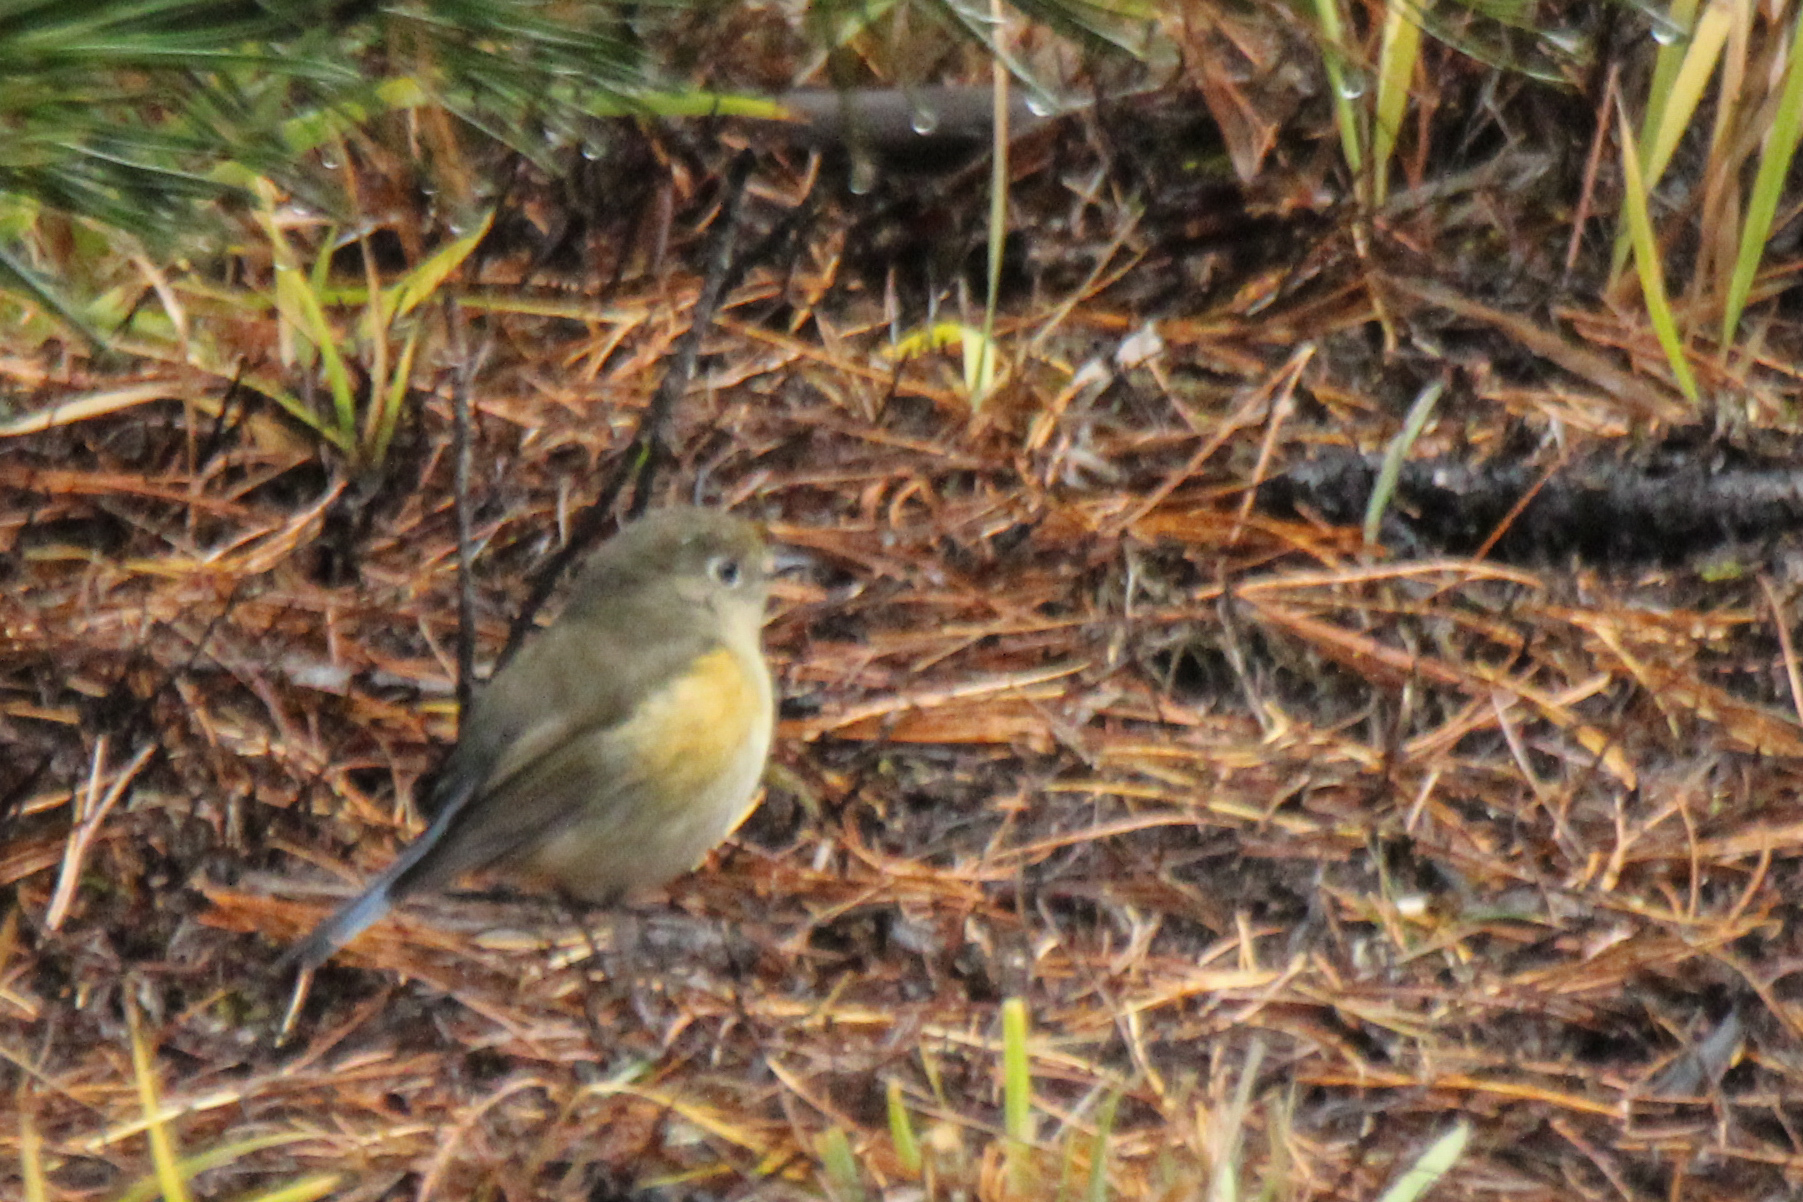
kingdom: Animalia
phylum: Chordata
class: Aves
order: Passeriformes
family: Muscicapidae
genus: Tarsiger
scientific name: Tarsiger cyanurus
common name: Red-flanked bluetail
